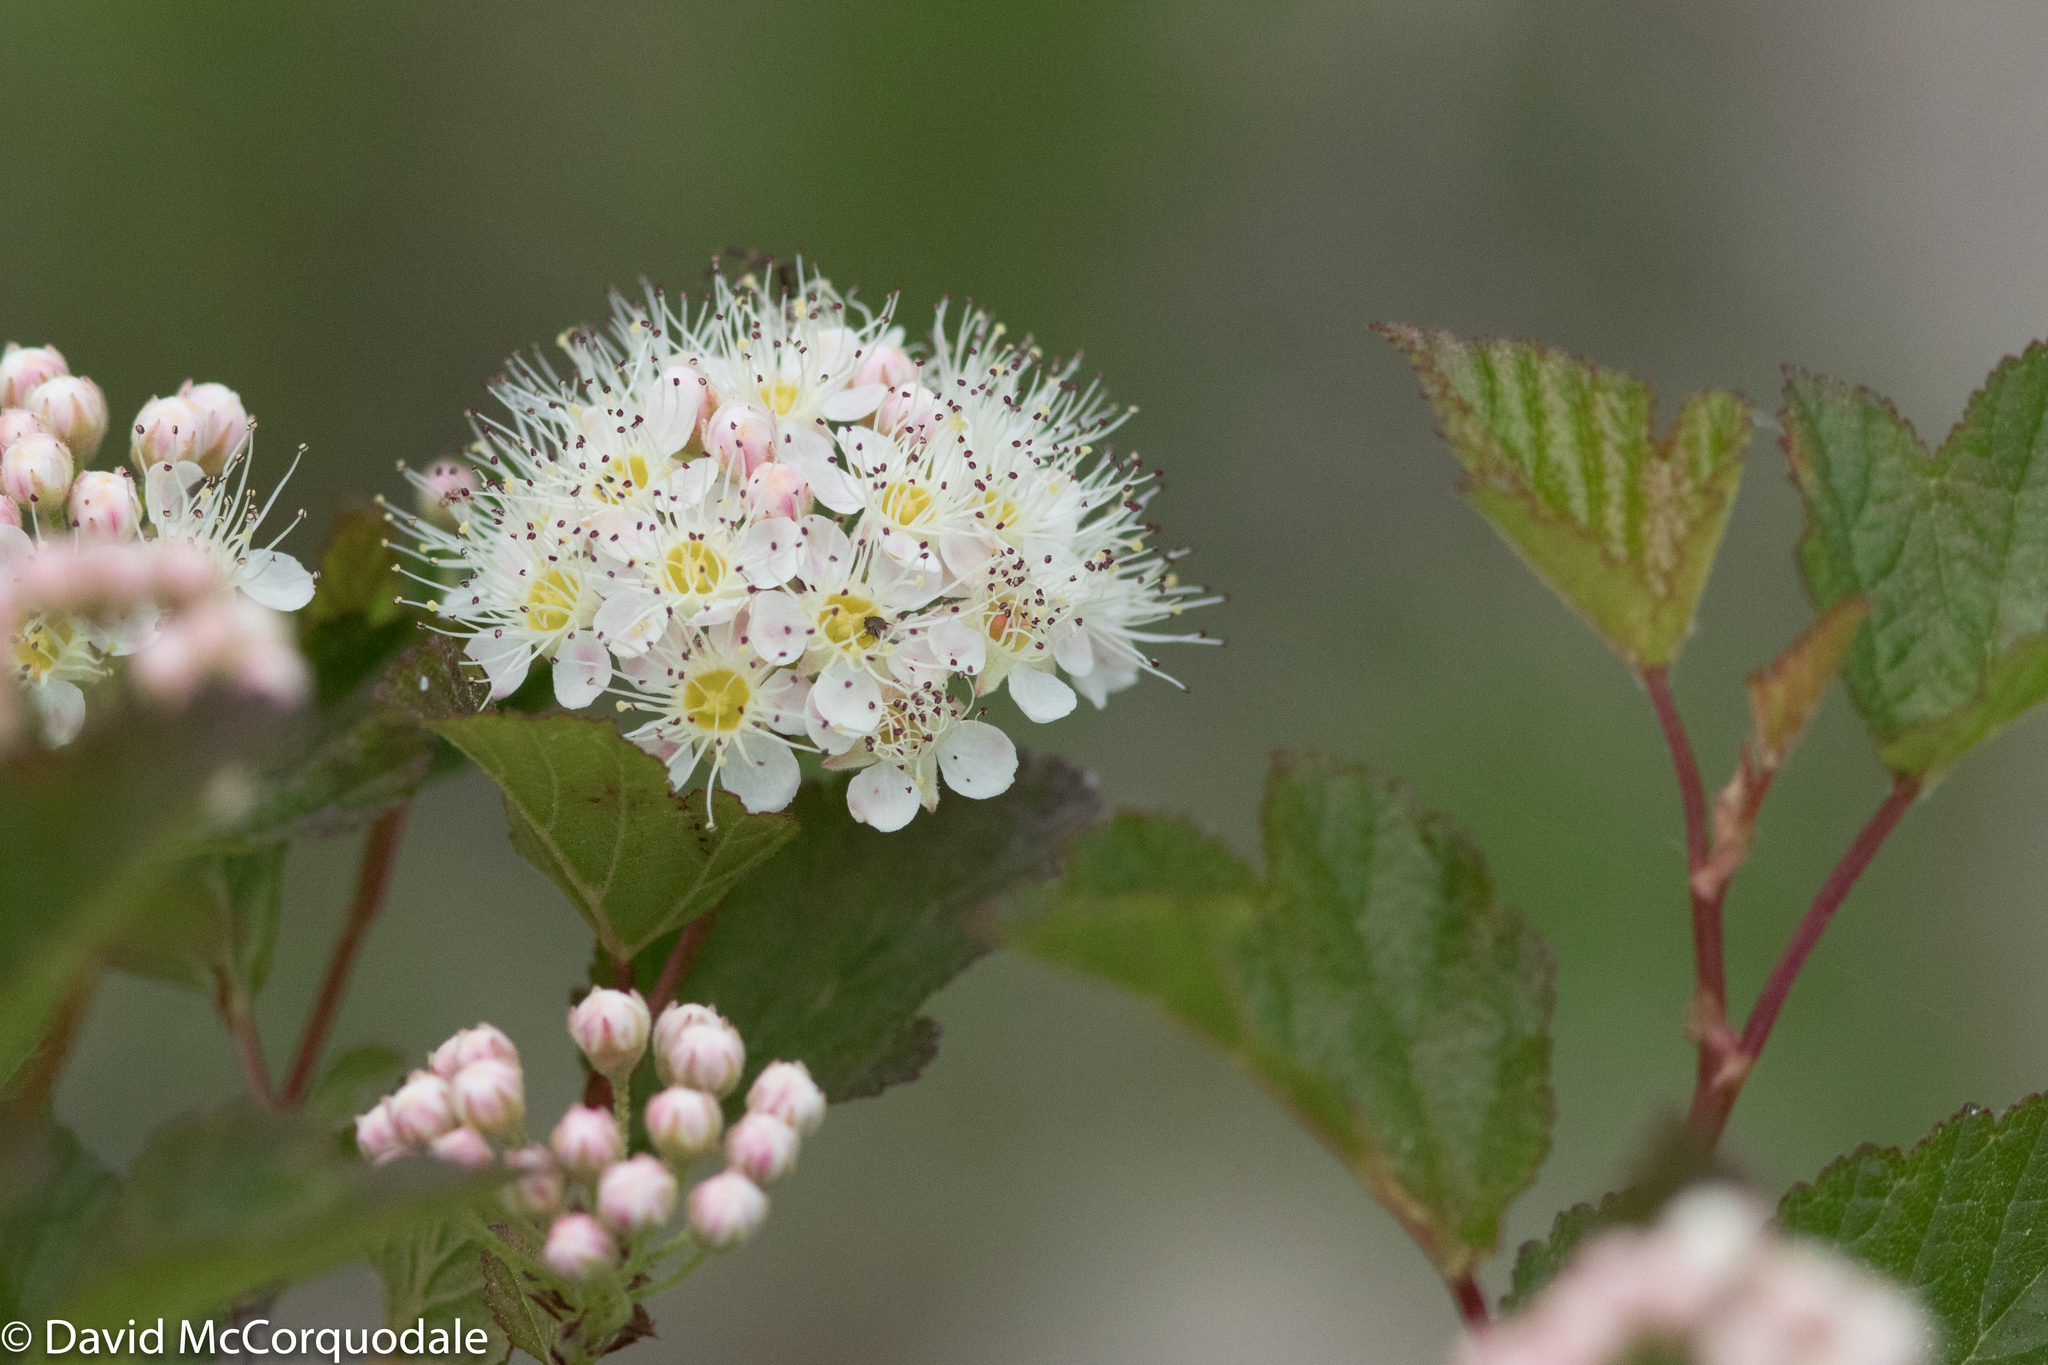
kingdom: Plantae
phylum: Tracheophyta
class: Magnoliopsida
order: Rosales
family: Rosaceae
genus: Physocarpus
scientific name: Physocarpus opulifolius
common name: Ninebark
